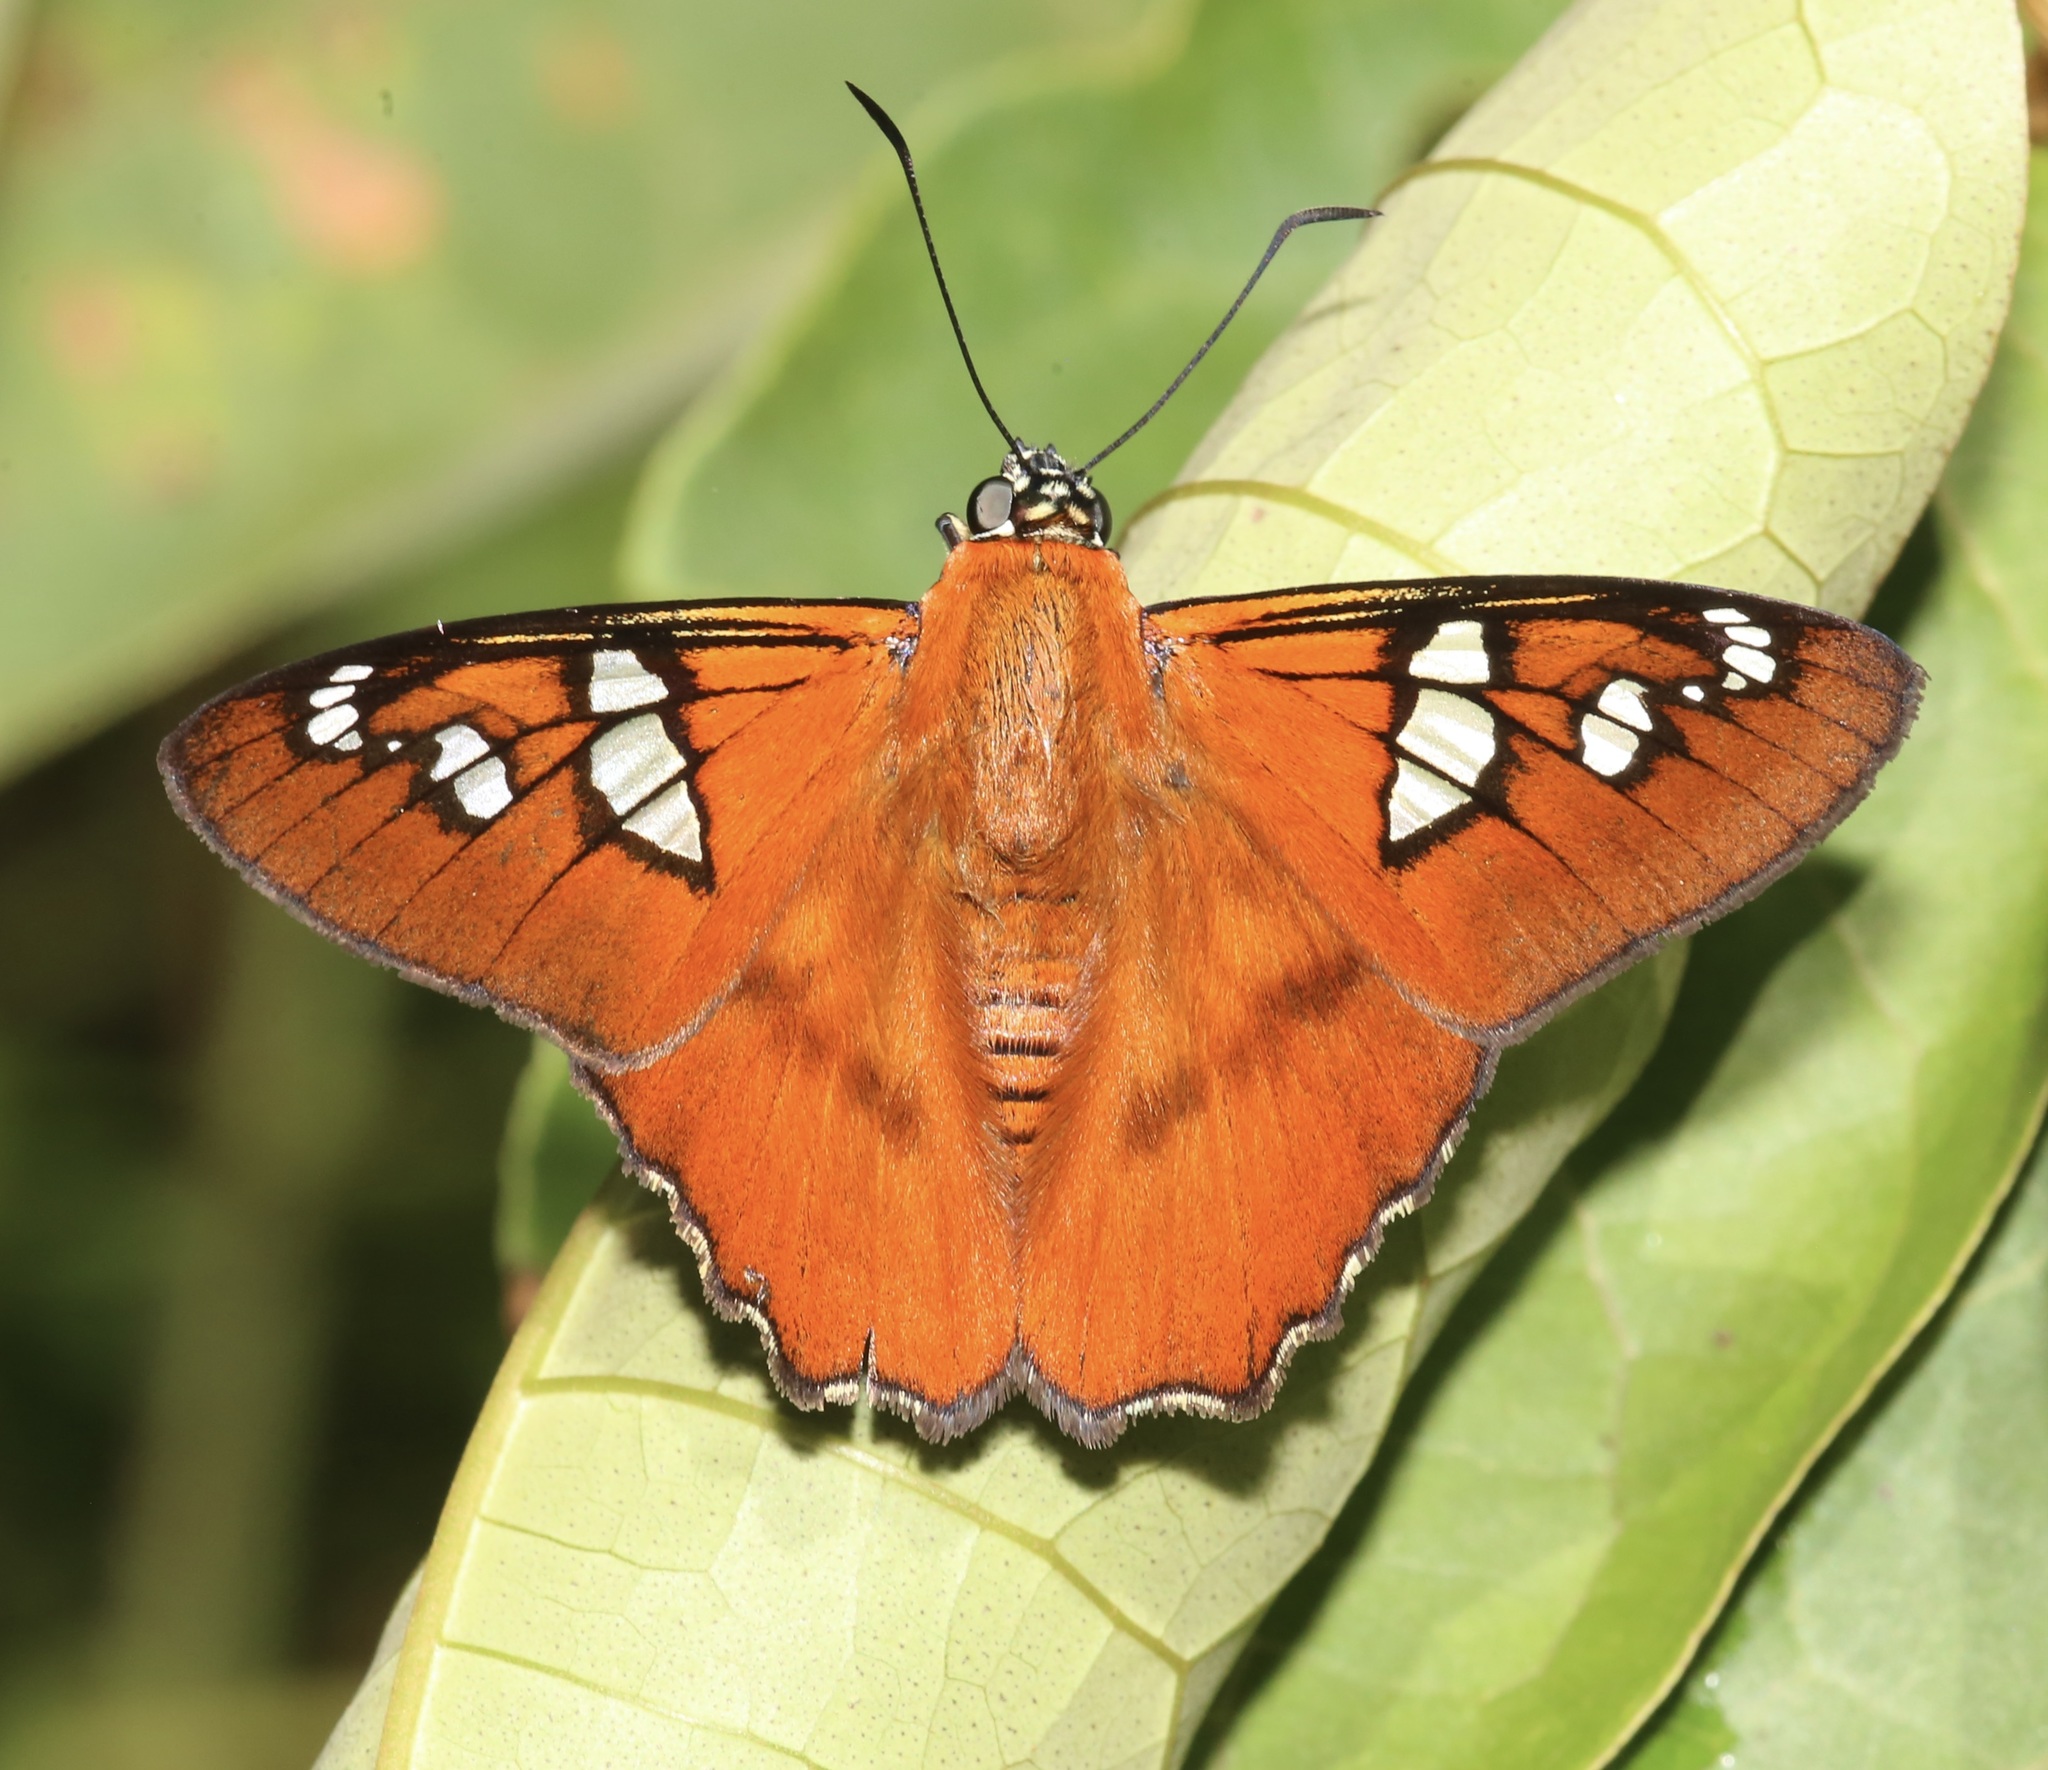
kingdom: Animalia
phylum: Arthropoda
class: Insecta
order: Lepidoptera
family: Hesperiidae
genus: Myscelus
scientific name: Myscelus pegasus
